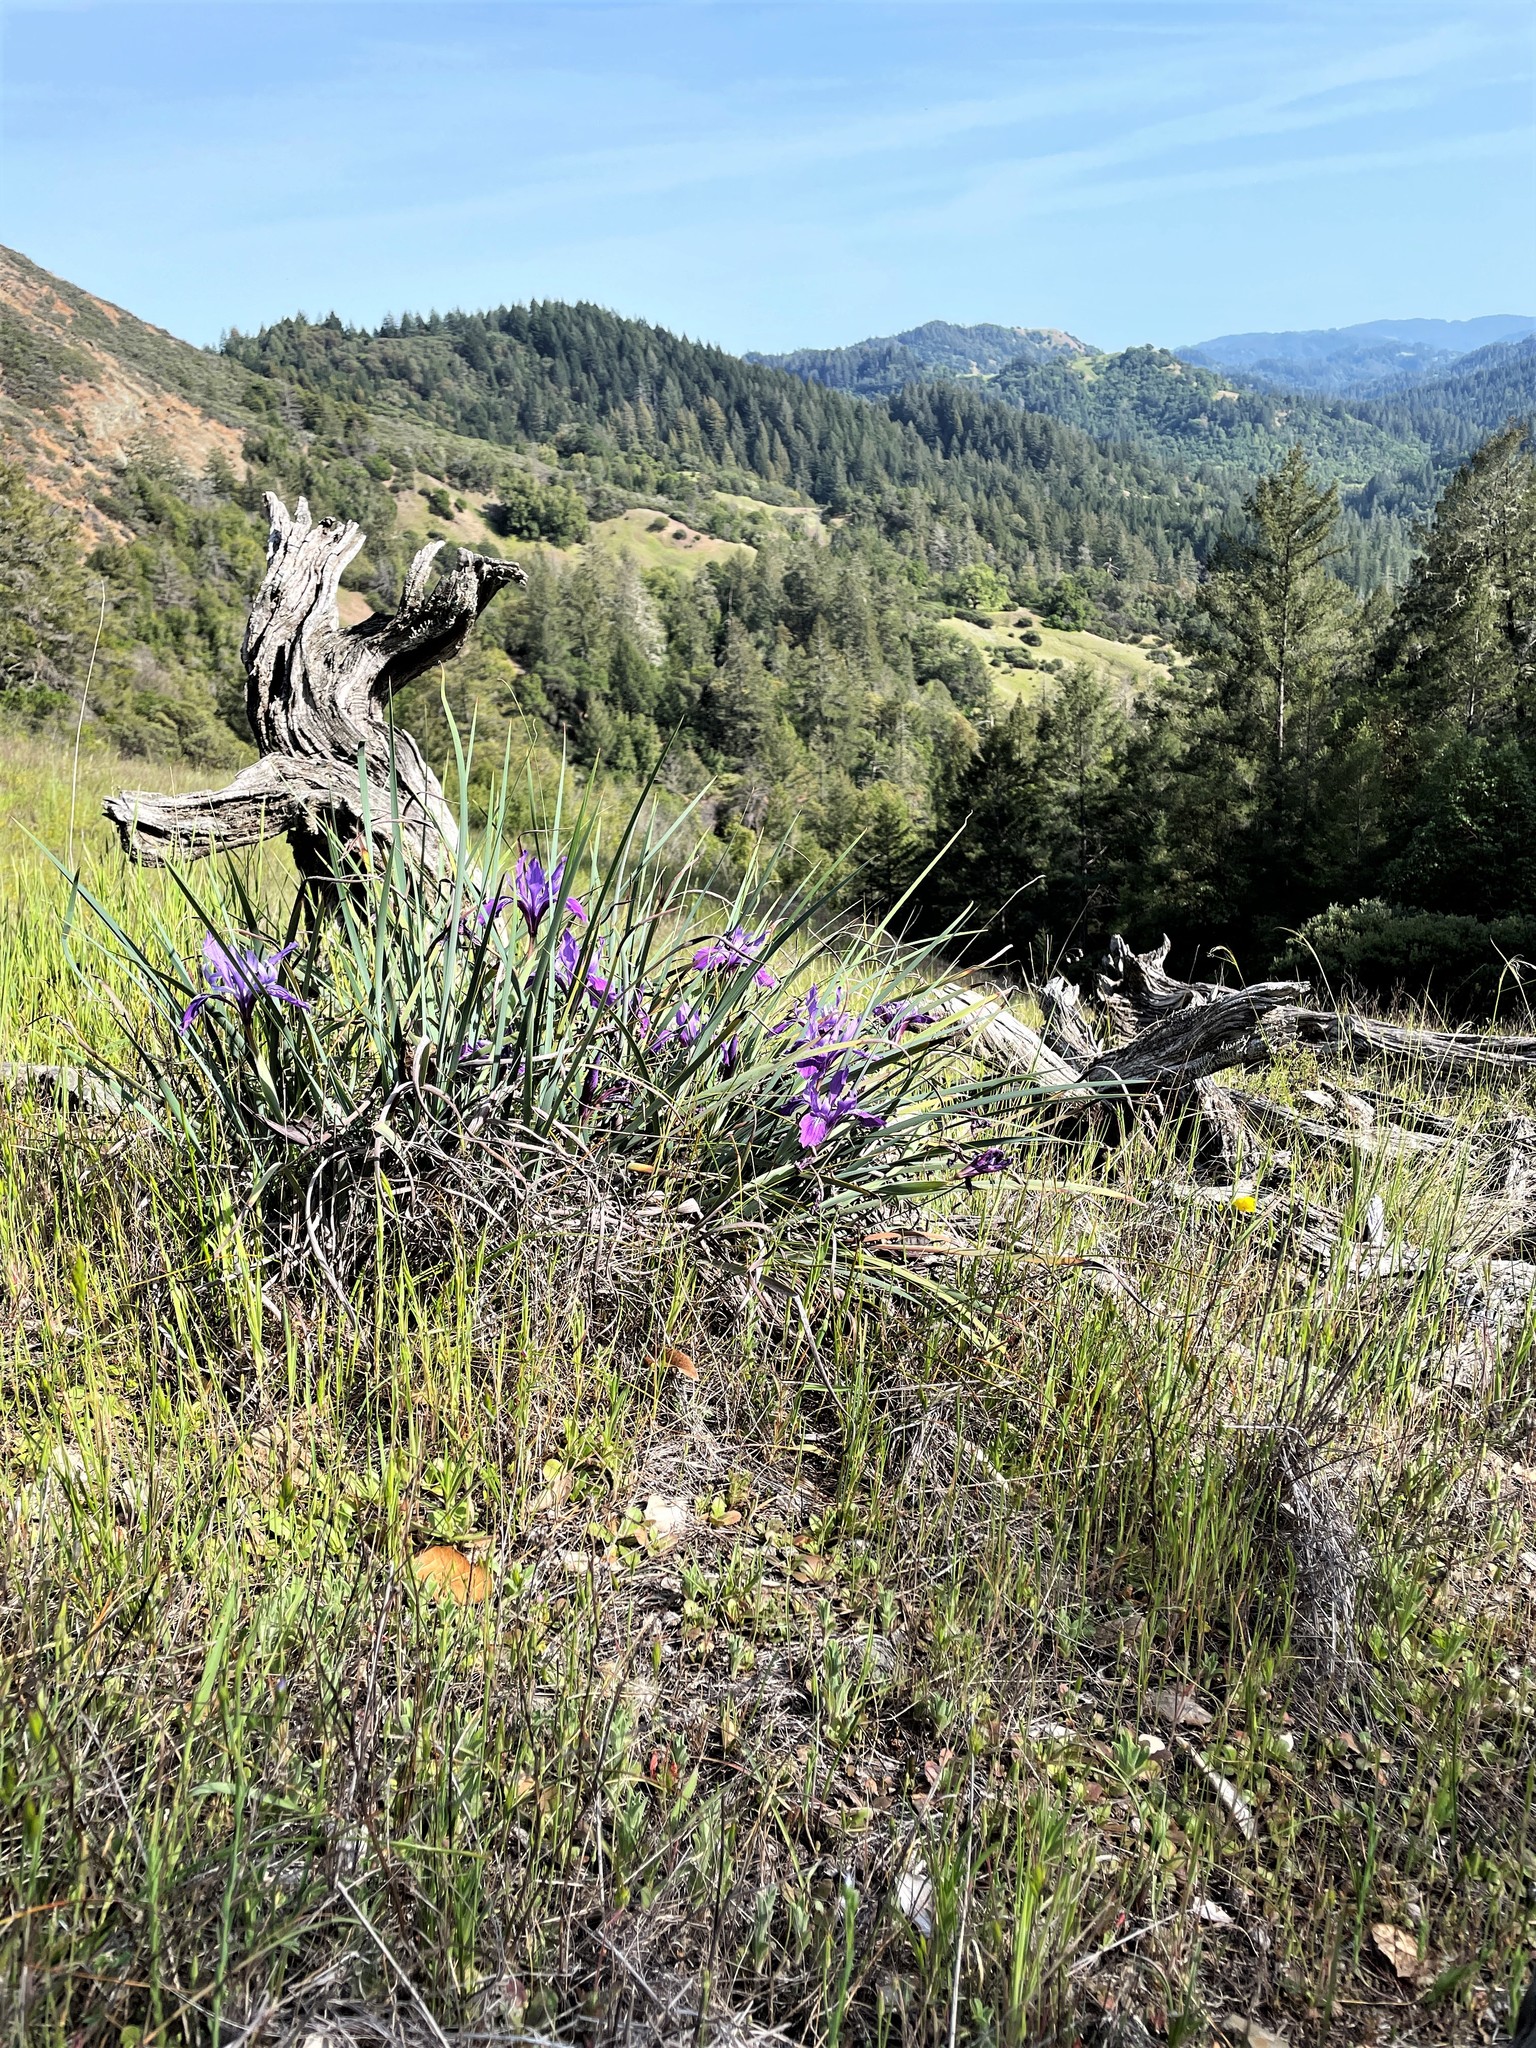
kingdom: Plantae
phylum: Tracheophyta
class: Liliopsida
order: Asparagales
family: Iridaceae
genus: Iris
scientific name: Iris macrosiphon
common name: Ground iris
